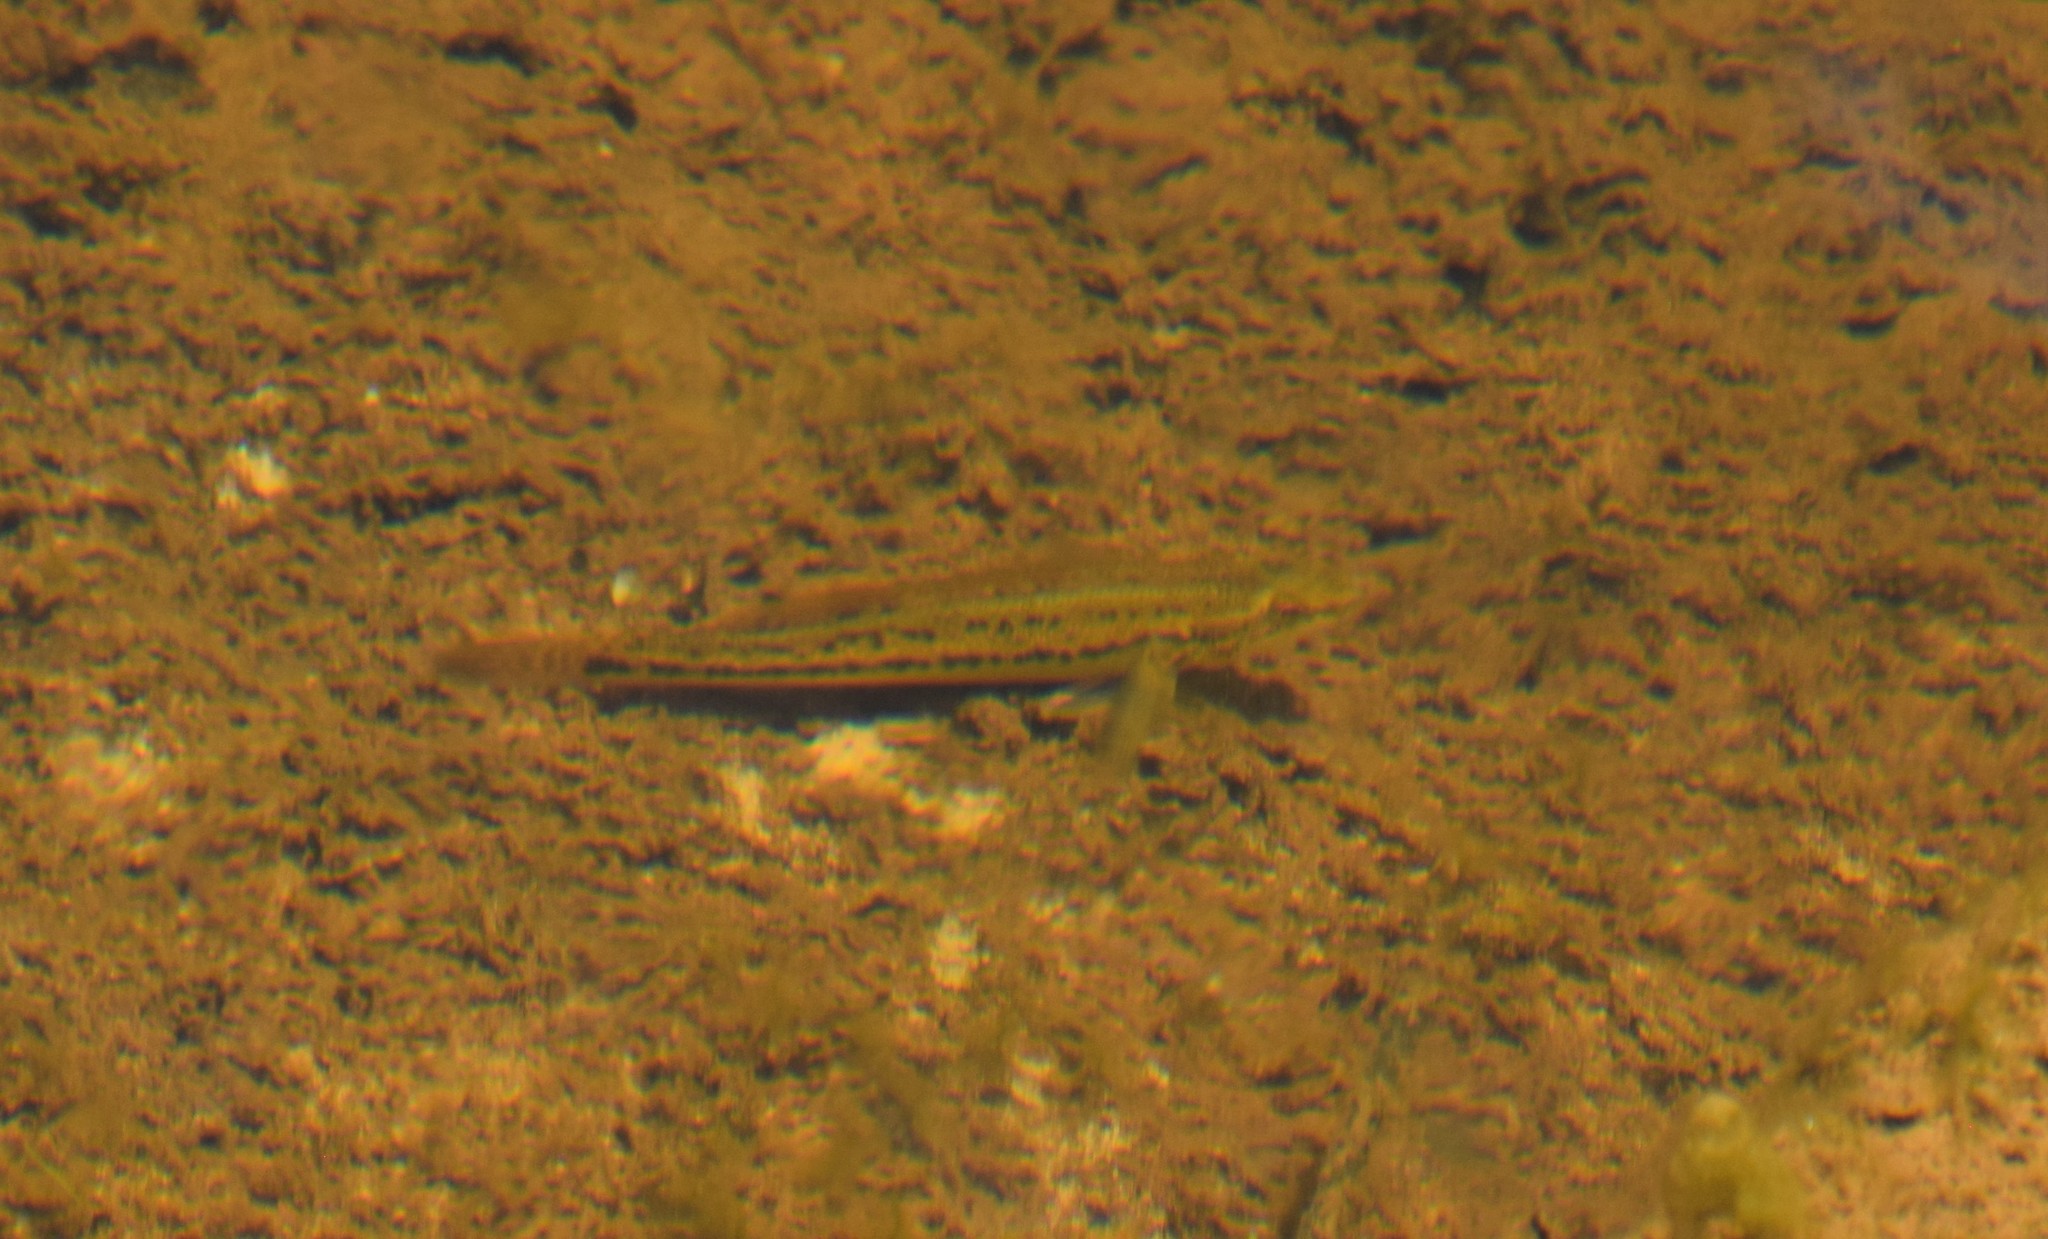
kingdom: Animalia
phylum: Chordata
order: Perciformes
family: Eleotridae
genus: Gobiomorphus
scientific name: Gobiomorphus coxii
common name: Cox's gudgeon
